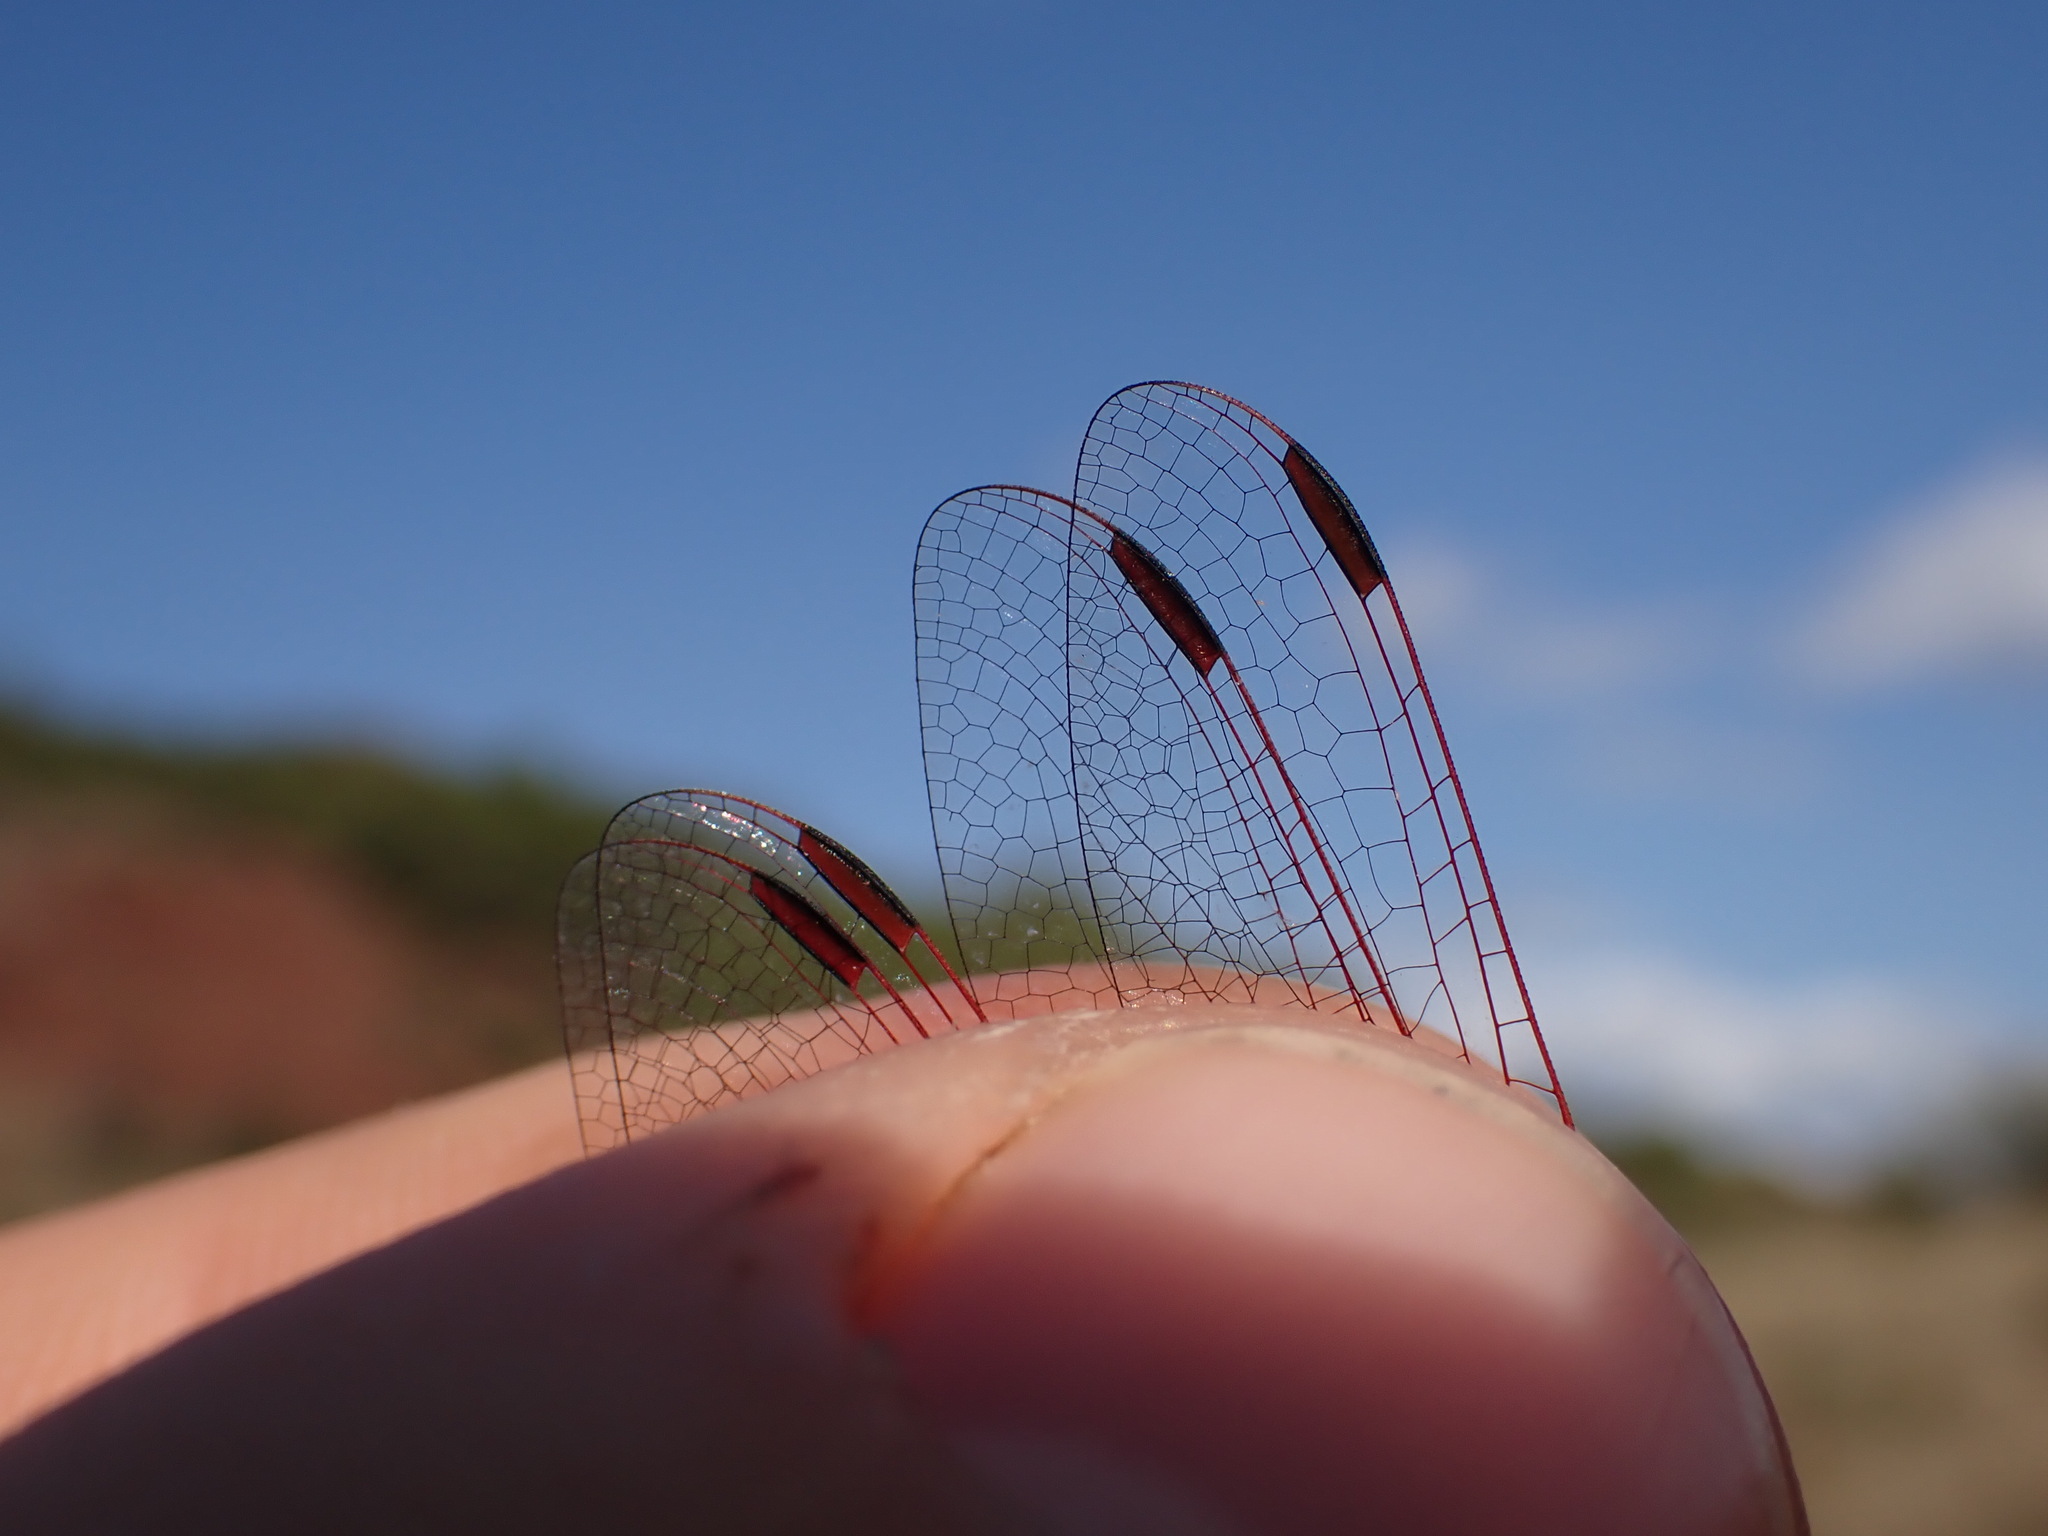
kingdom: Animalia
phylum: Arthropoda
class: Insecta
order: Odonata
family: Libellulidae
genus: Trithemis
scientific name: Trithemis annulata
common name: Violet dropwing
